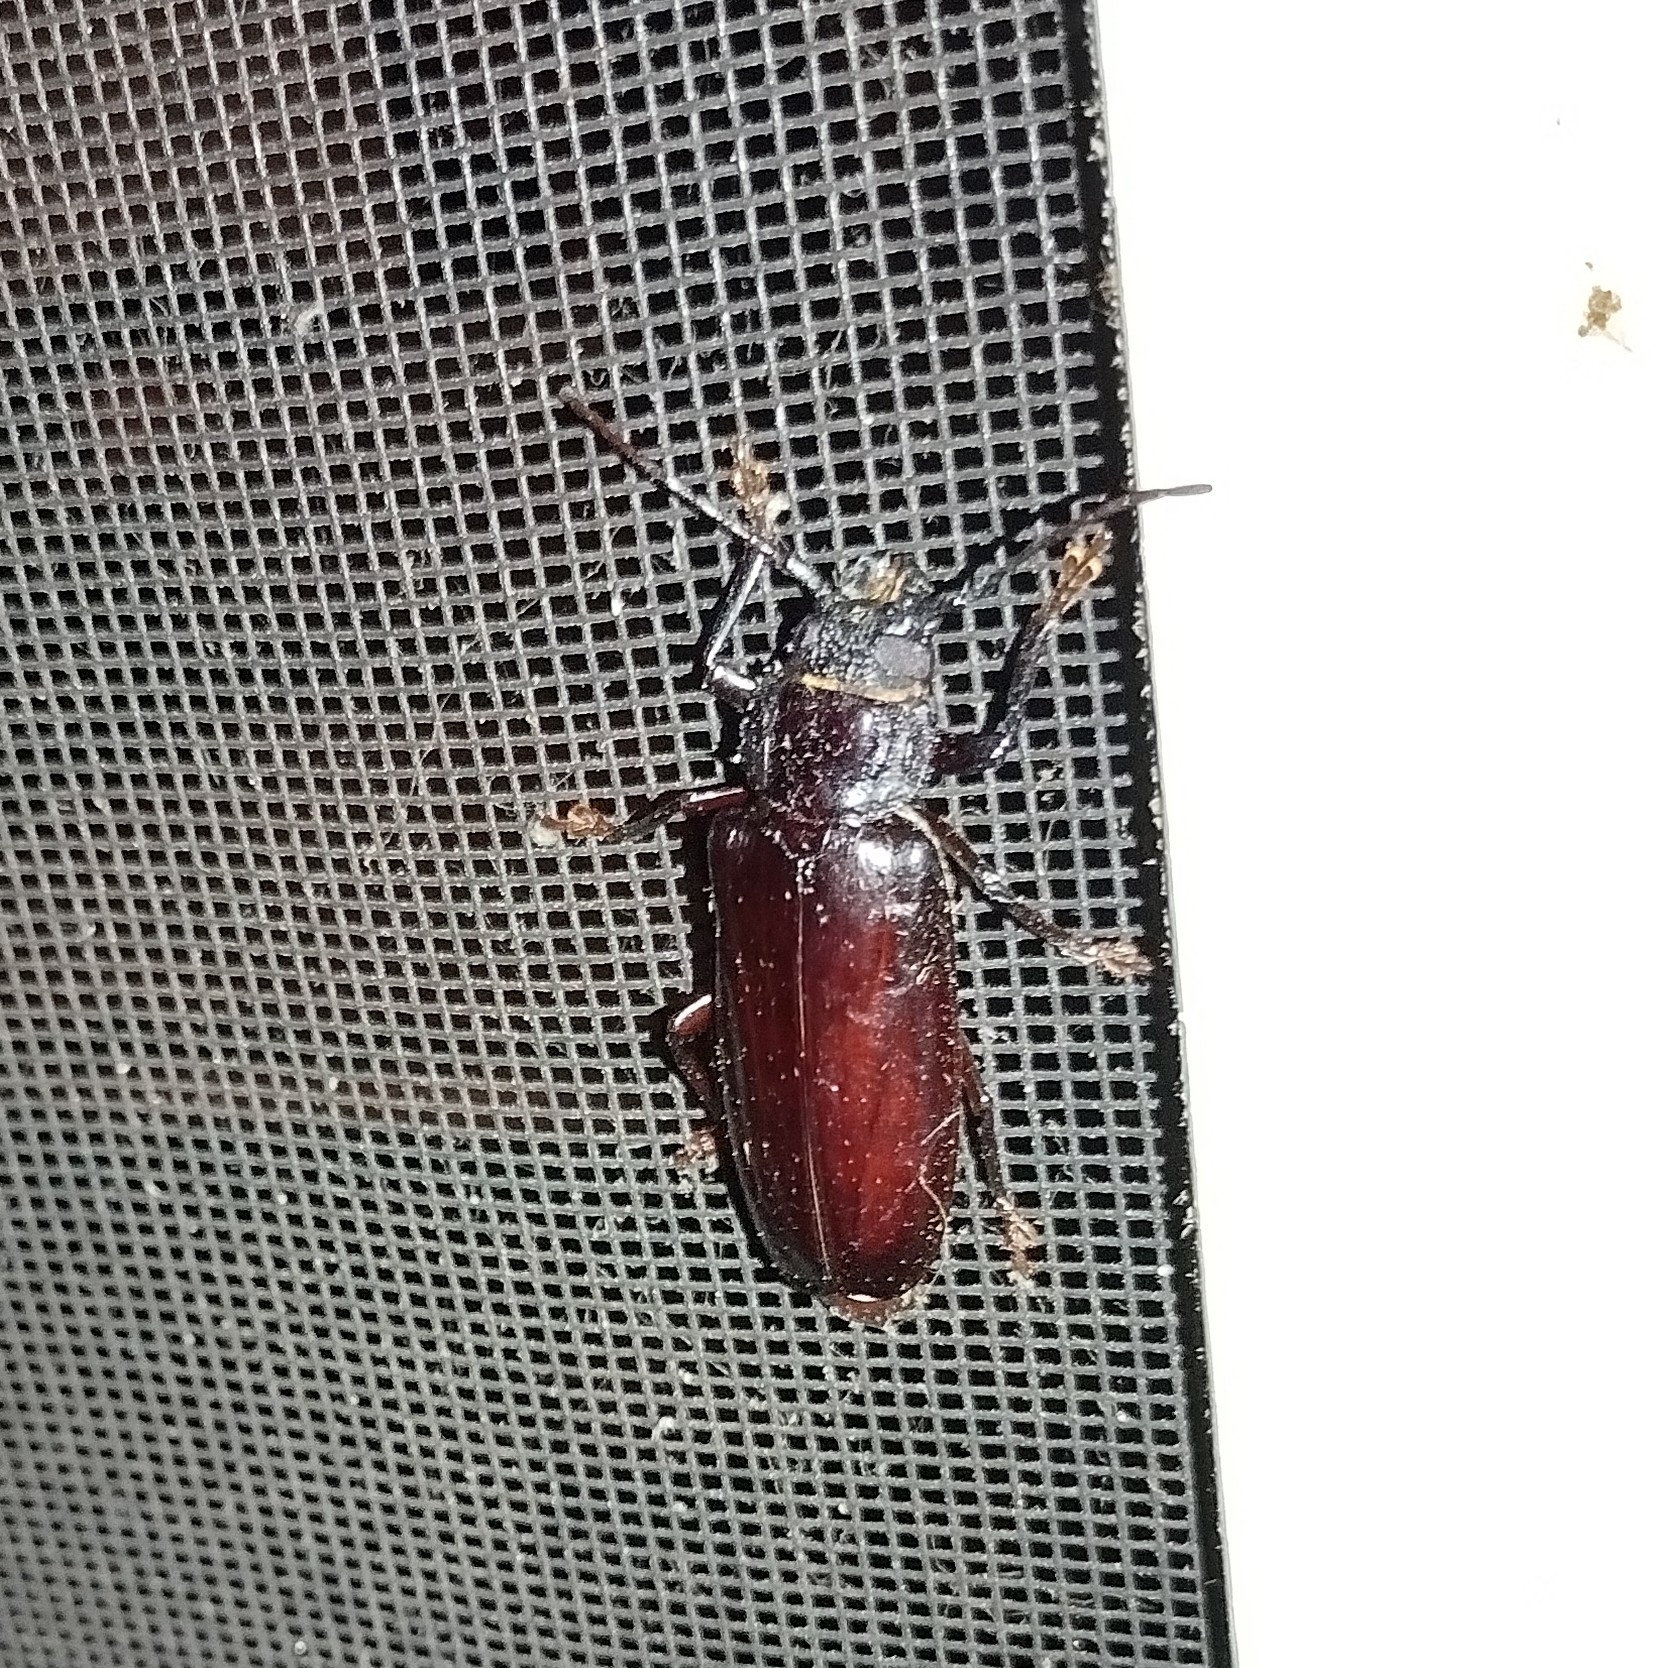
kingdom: Animalia
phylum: Arthropoda
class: Insecta
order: Coleoptera
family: Cerambycidae
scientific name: Cerambycidae
